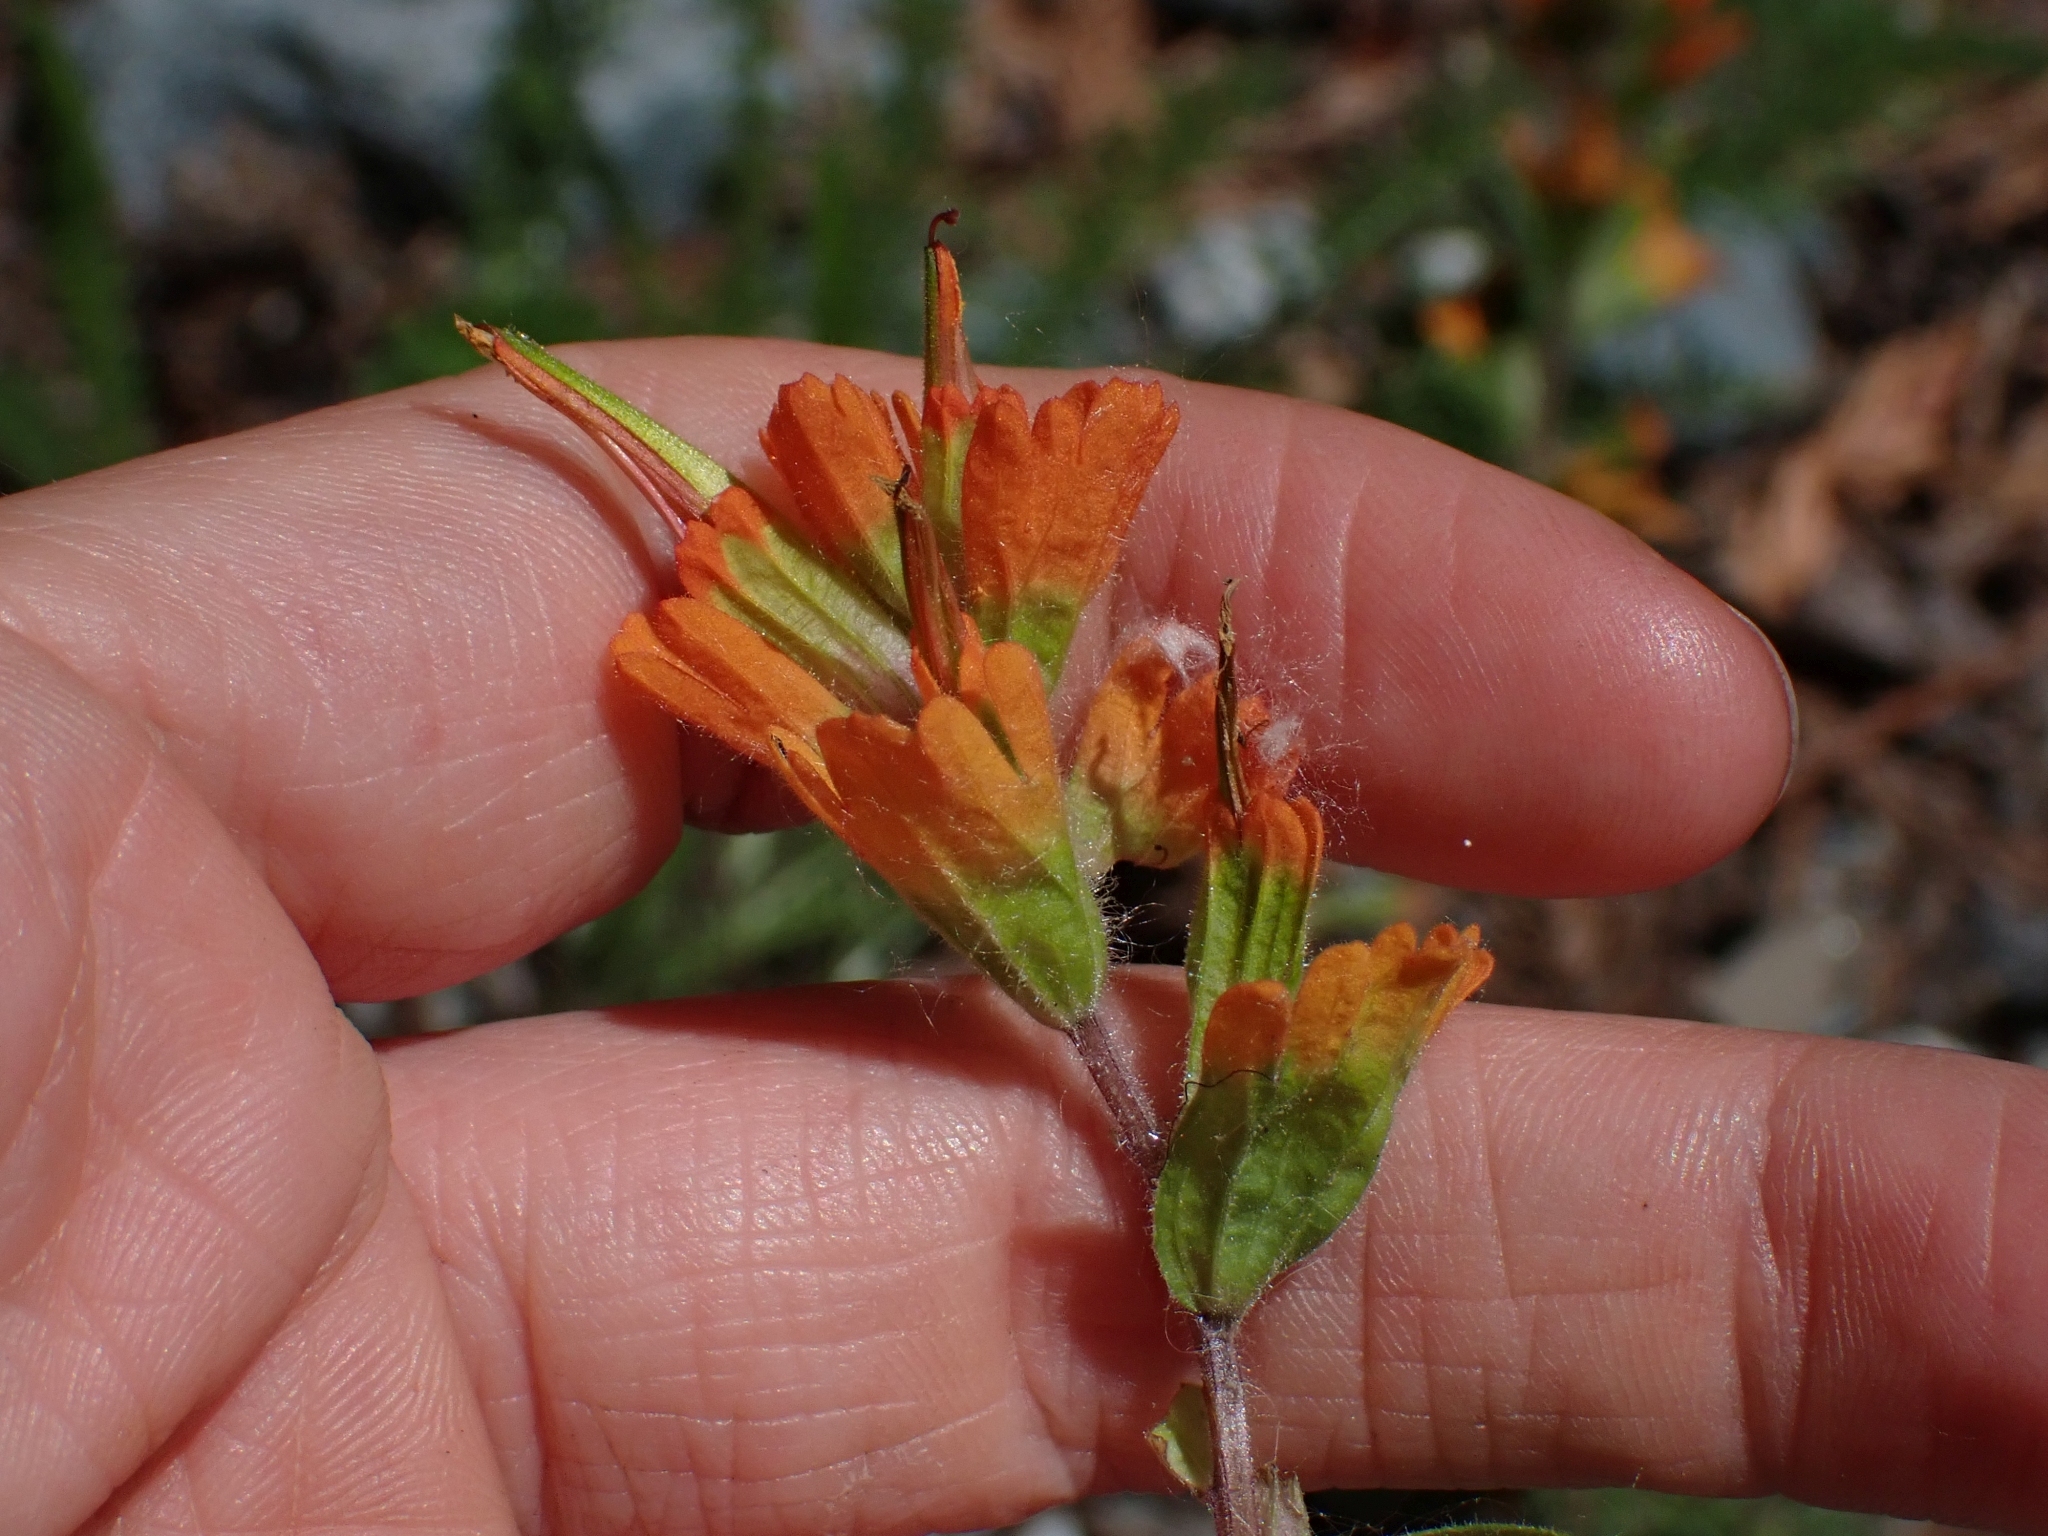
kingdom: Plantae
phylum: Tracheophyta
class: Magnoliopsida
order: Lamiales
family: Orobanchaceae
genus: Castilleja
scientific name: Castilleja hispida
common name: Bristly paintbrush
